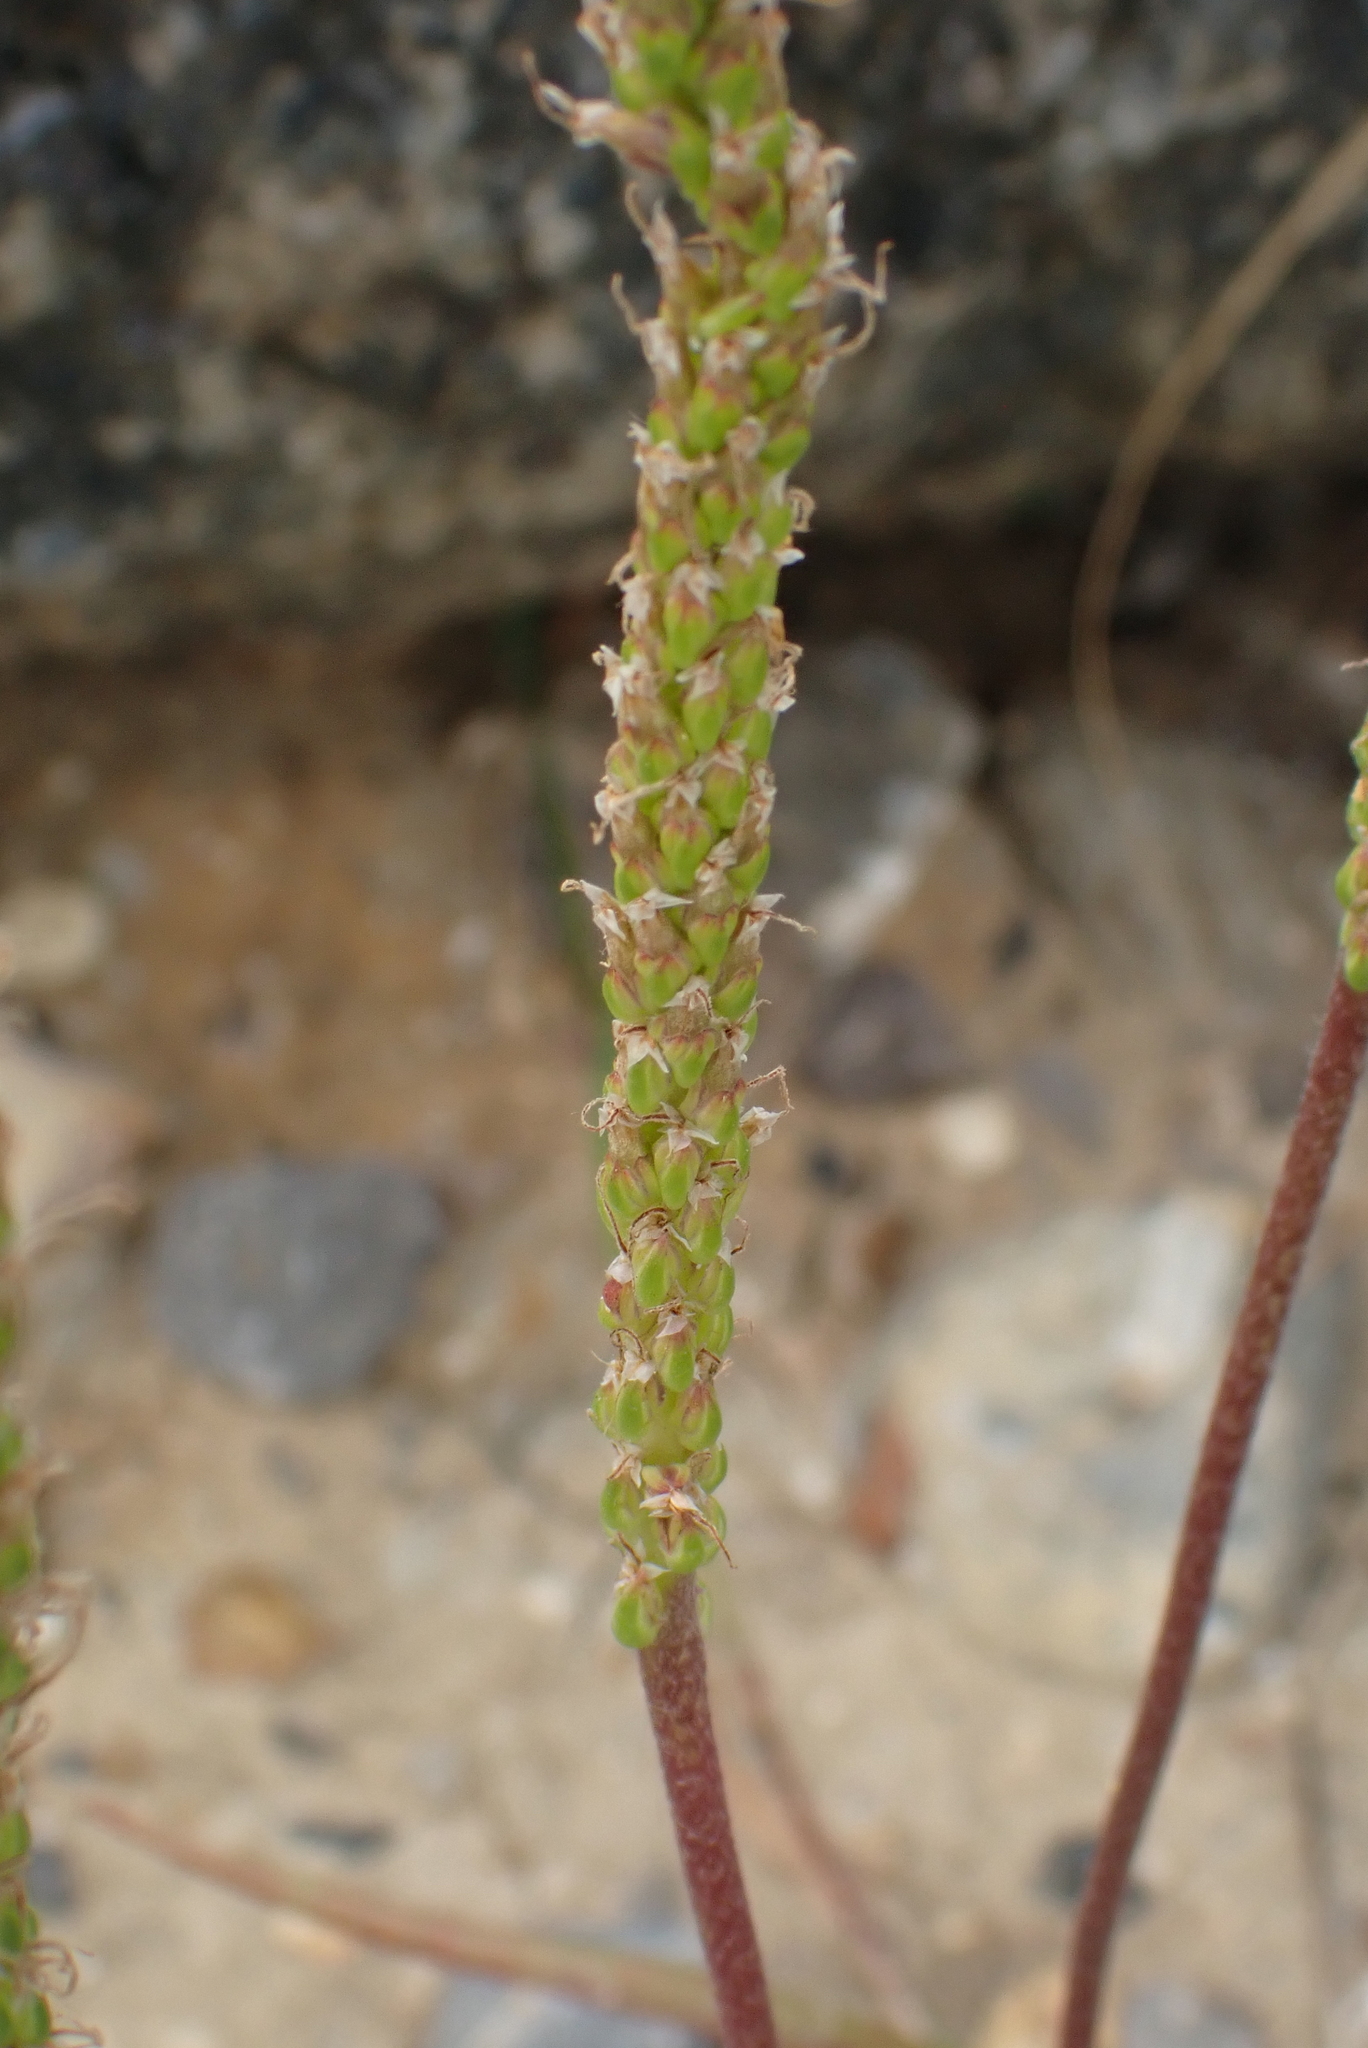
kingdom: Plantae
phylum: Tracheophyta
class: Magnoliopsida
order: Lamiales
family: Plantaginaceae
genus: Plantago
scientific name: Plantago maritima
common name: Sea plantain
